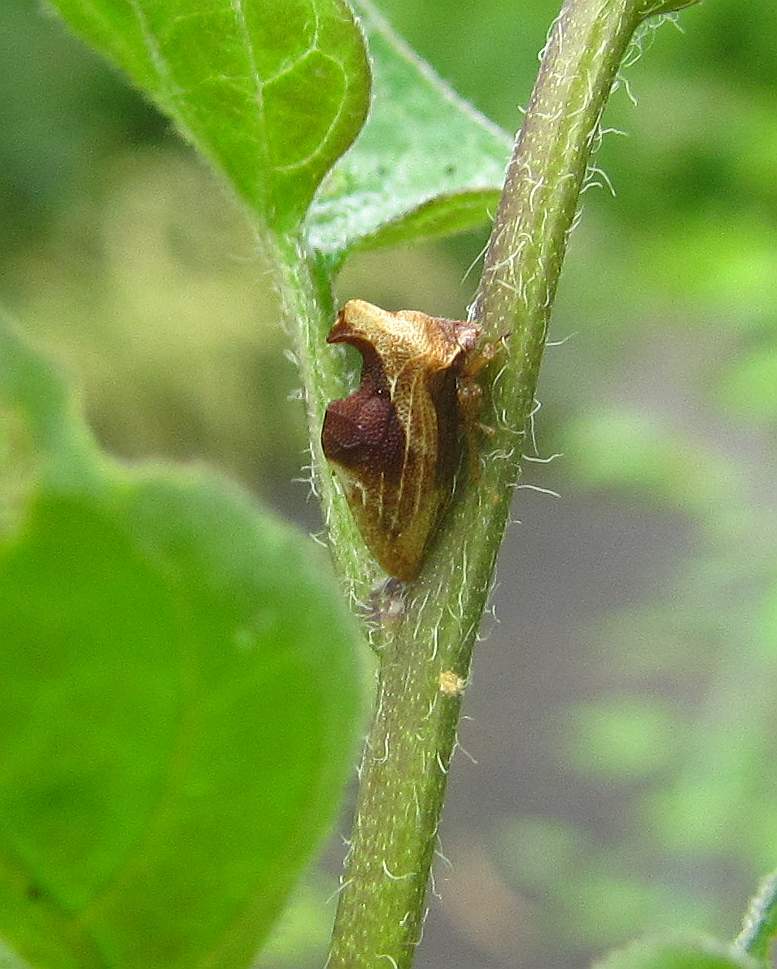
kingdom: Animalia
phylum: Arthropoda
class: Insecta
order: Hemiptera
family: Membracidae
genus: Entylia
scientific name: Entylia carinata
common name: Keeled treehopper
